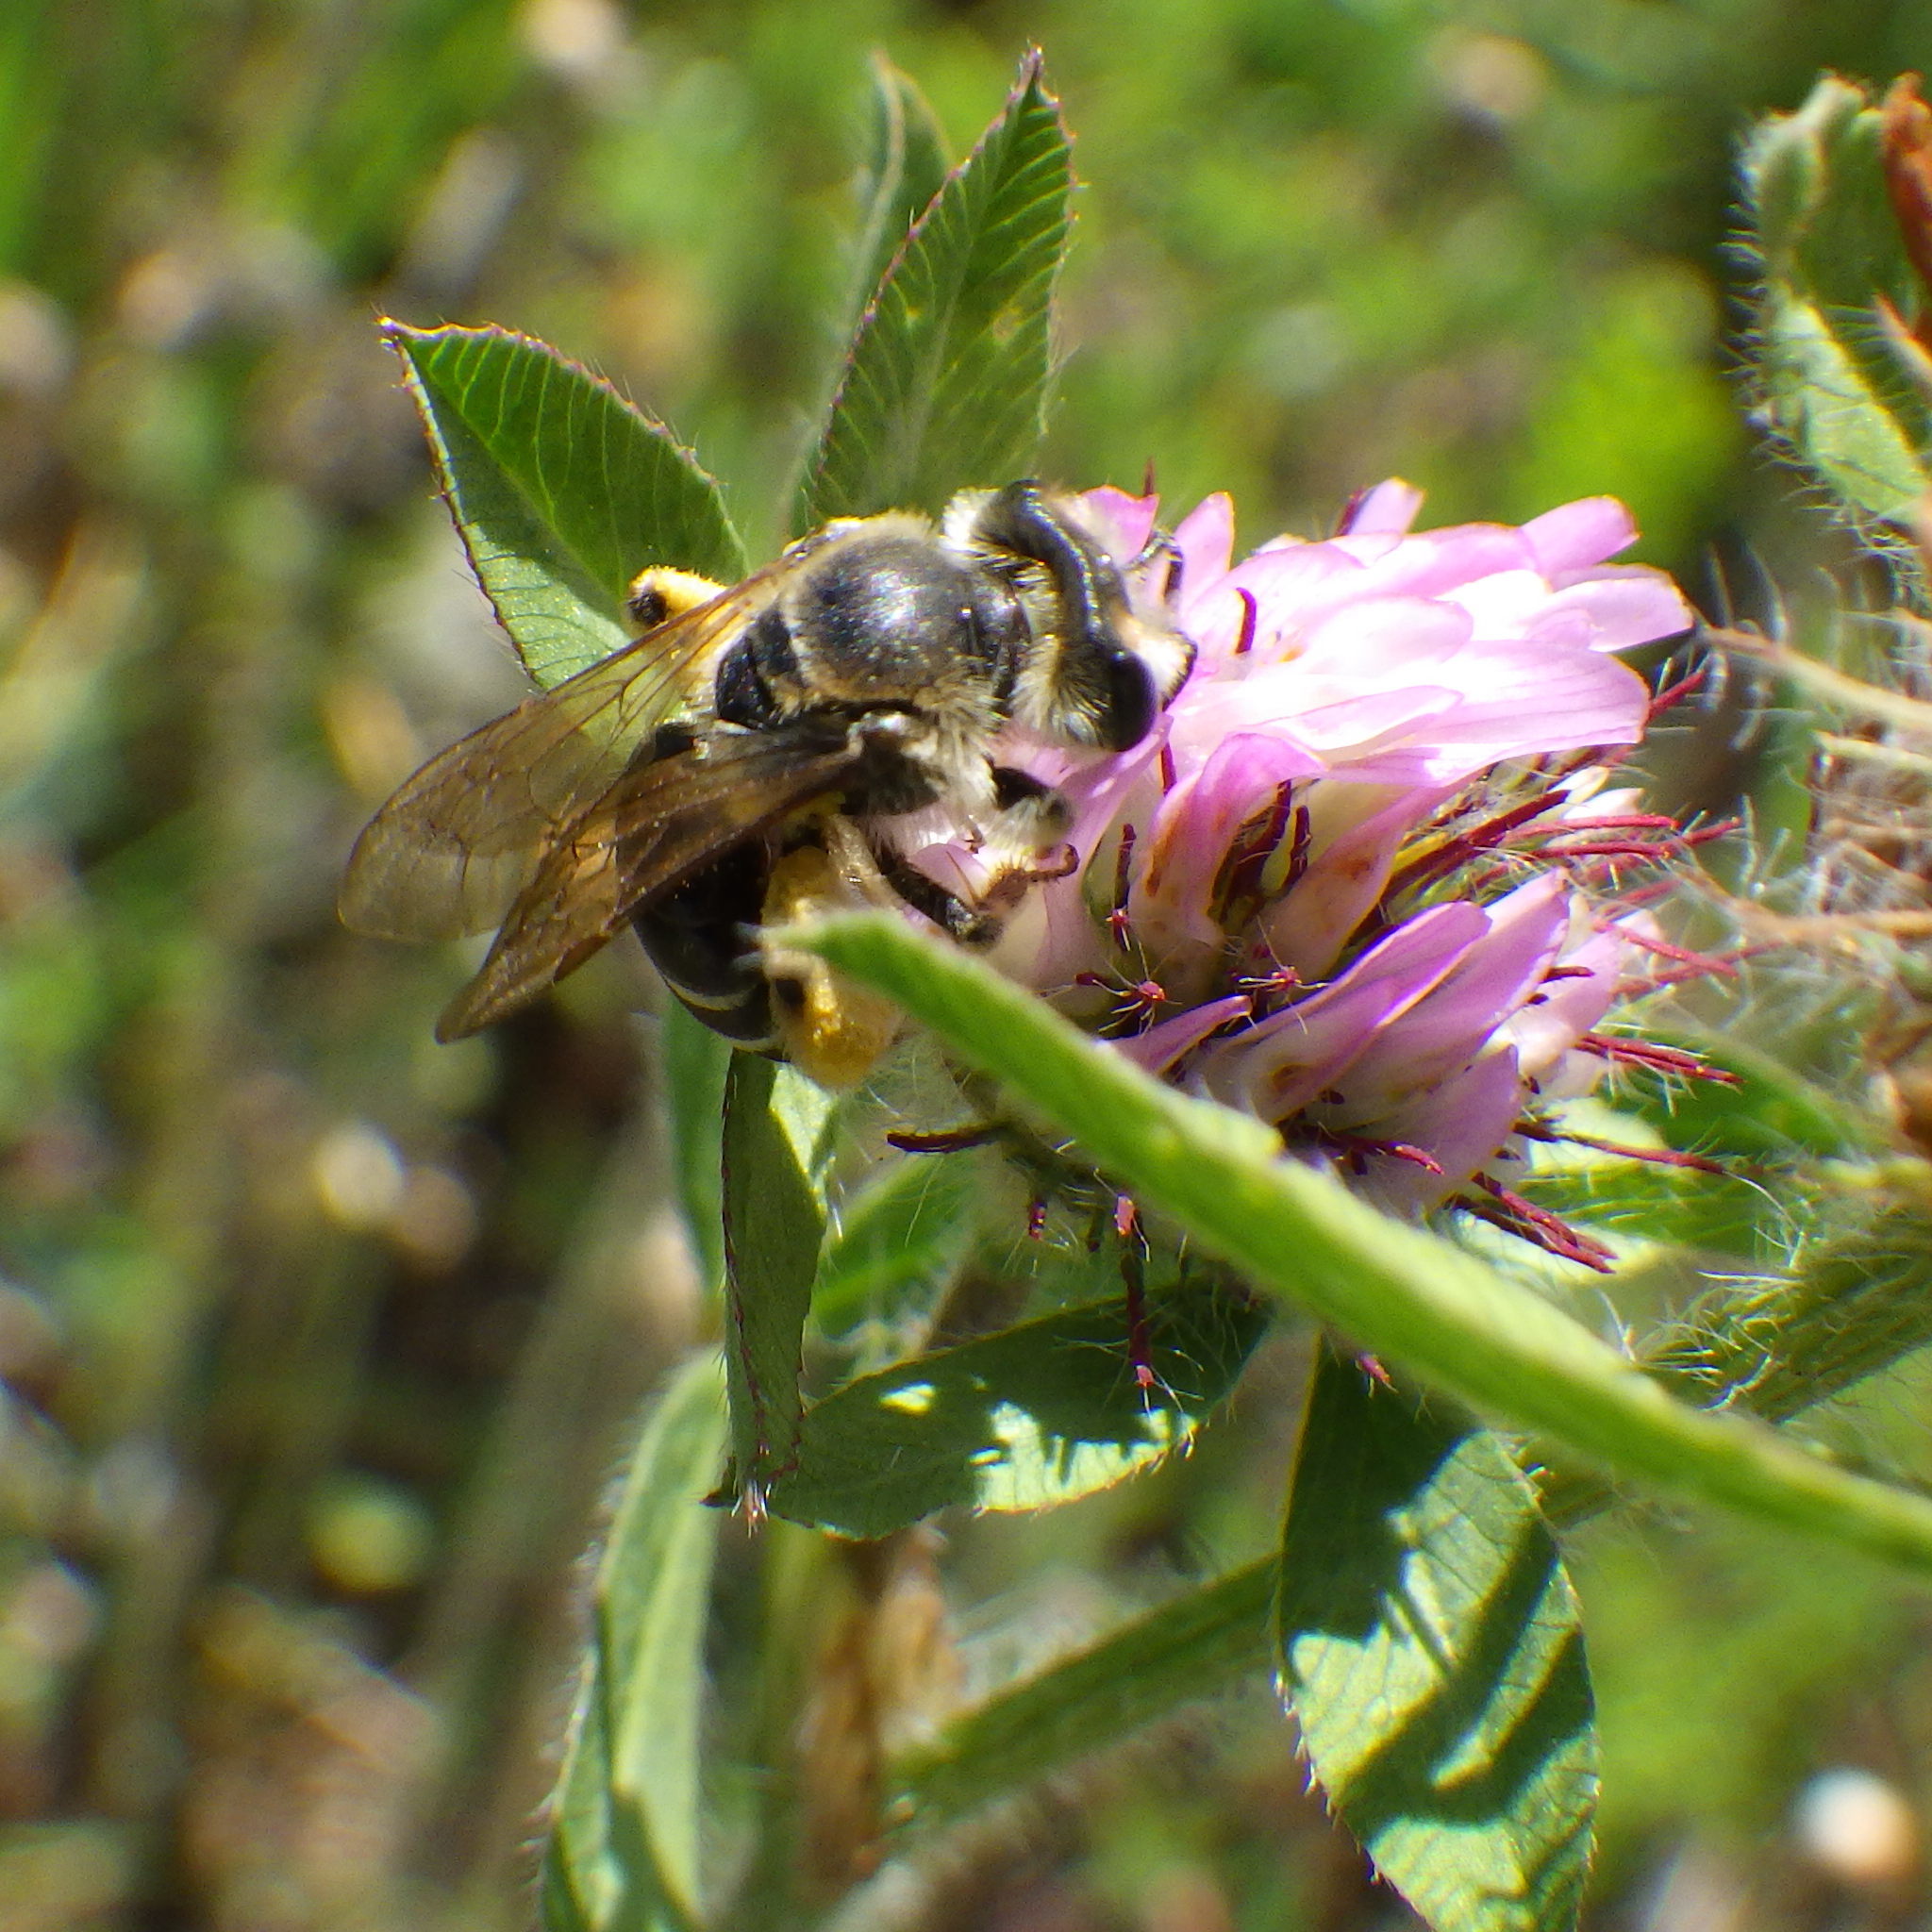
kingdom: Animalia
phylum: Arthropoda
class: Insecta
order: Hymenoptera
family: Andrenidae
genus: Andrena
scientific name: Andrena wilkella
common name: Wilke's mining bee
